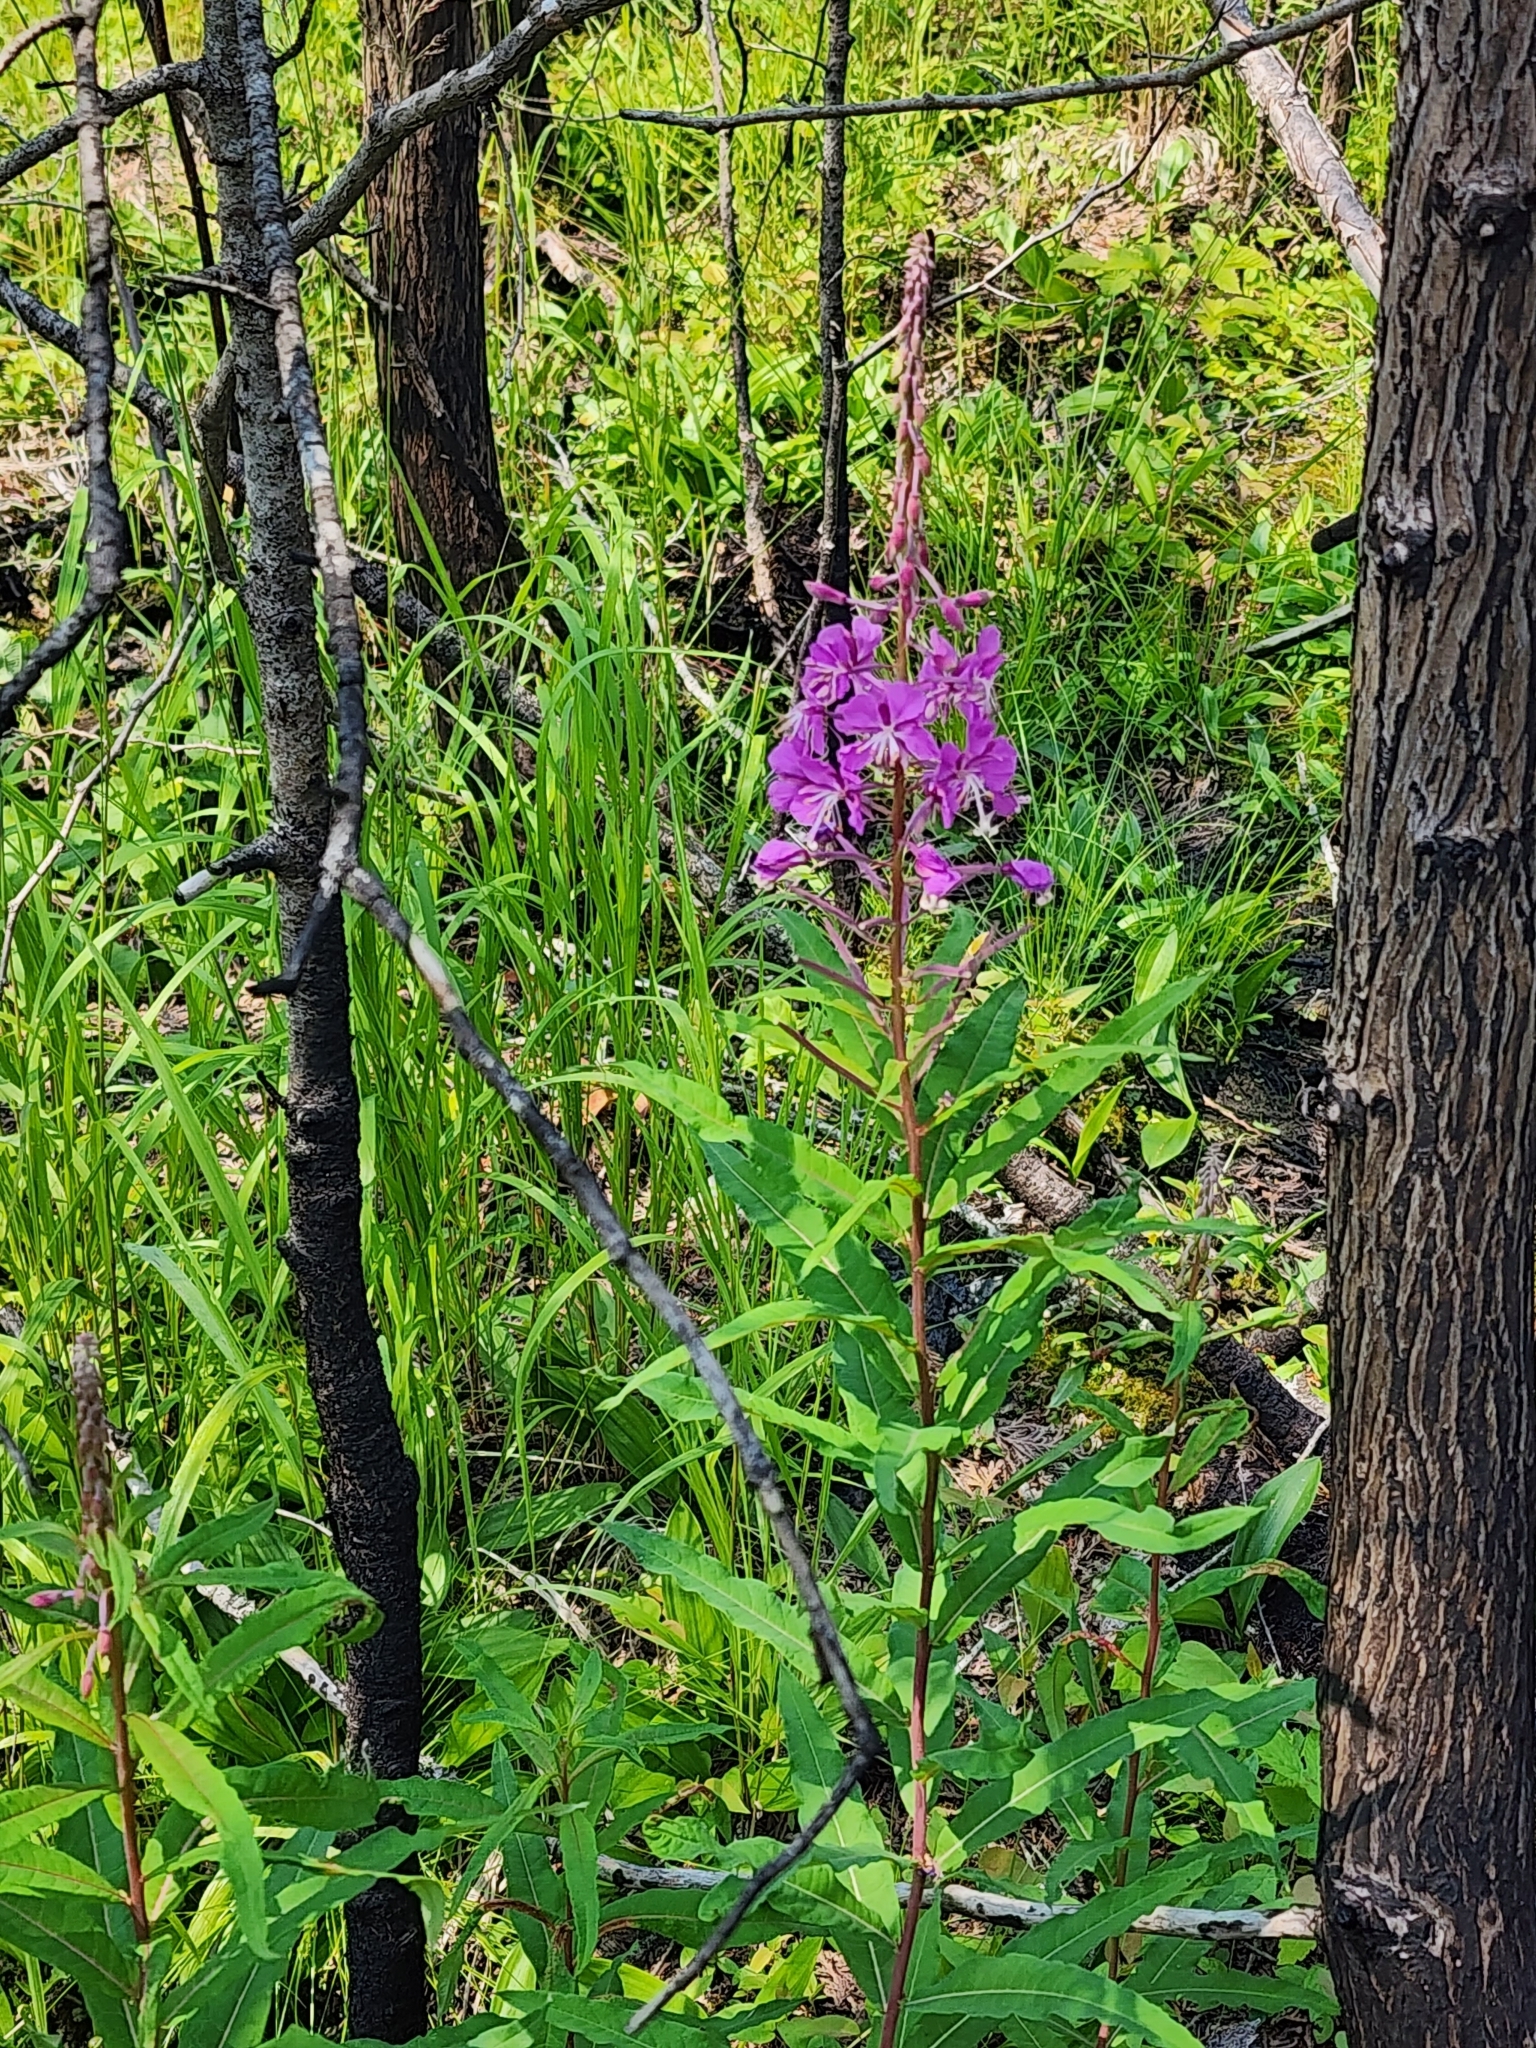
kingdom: Plantae
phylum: Tracheophyta
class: Magnoliopsida
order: Myrtales
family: Onagraceae
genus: Chamaenerion
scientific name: Chamaenerion angustifolium
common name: Fireweed
